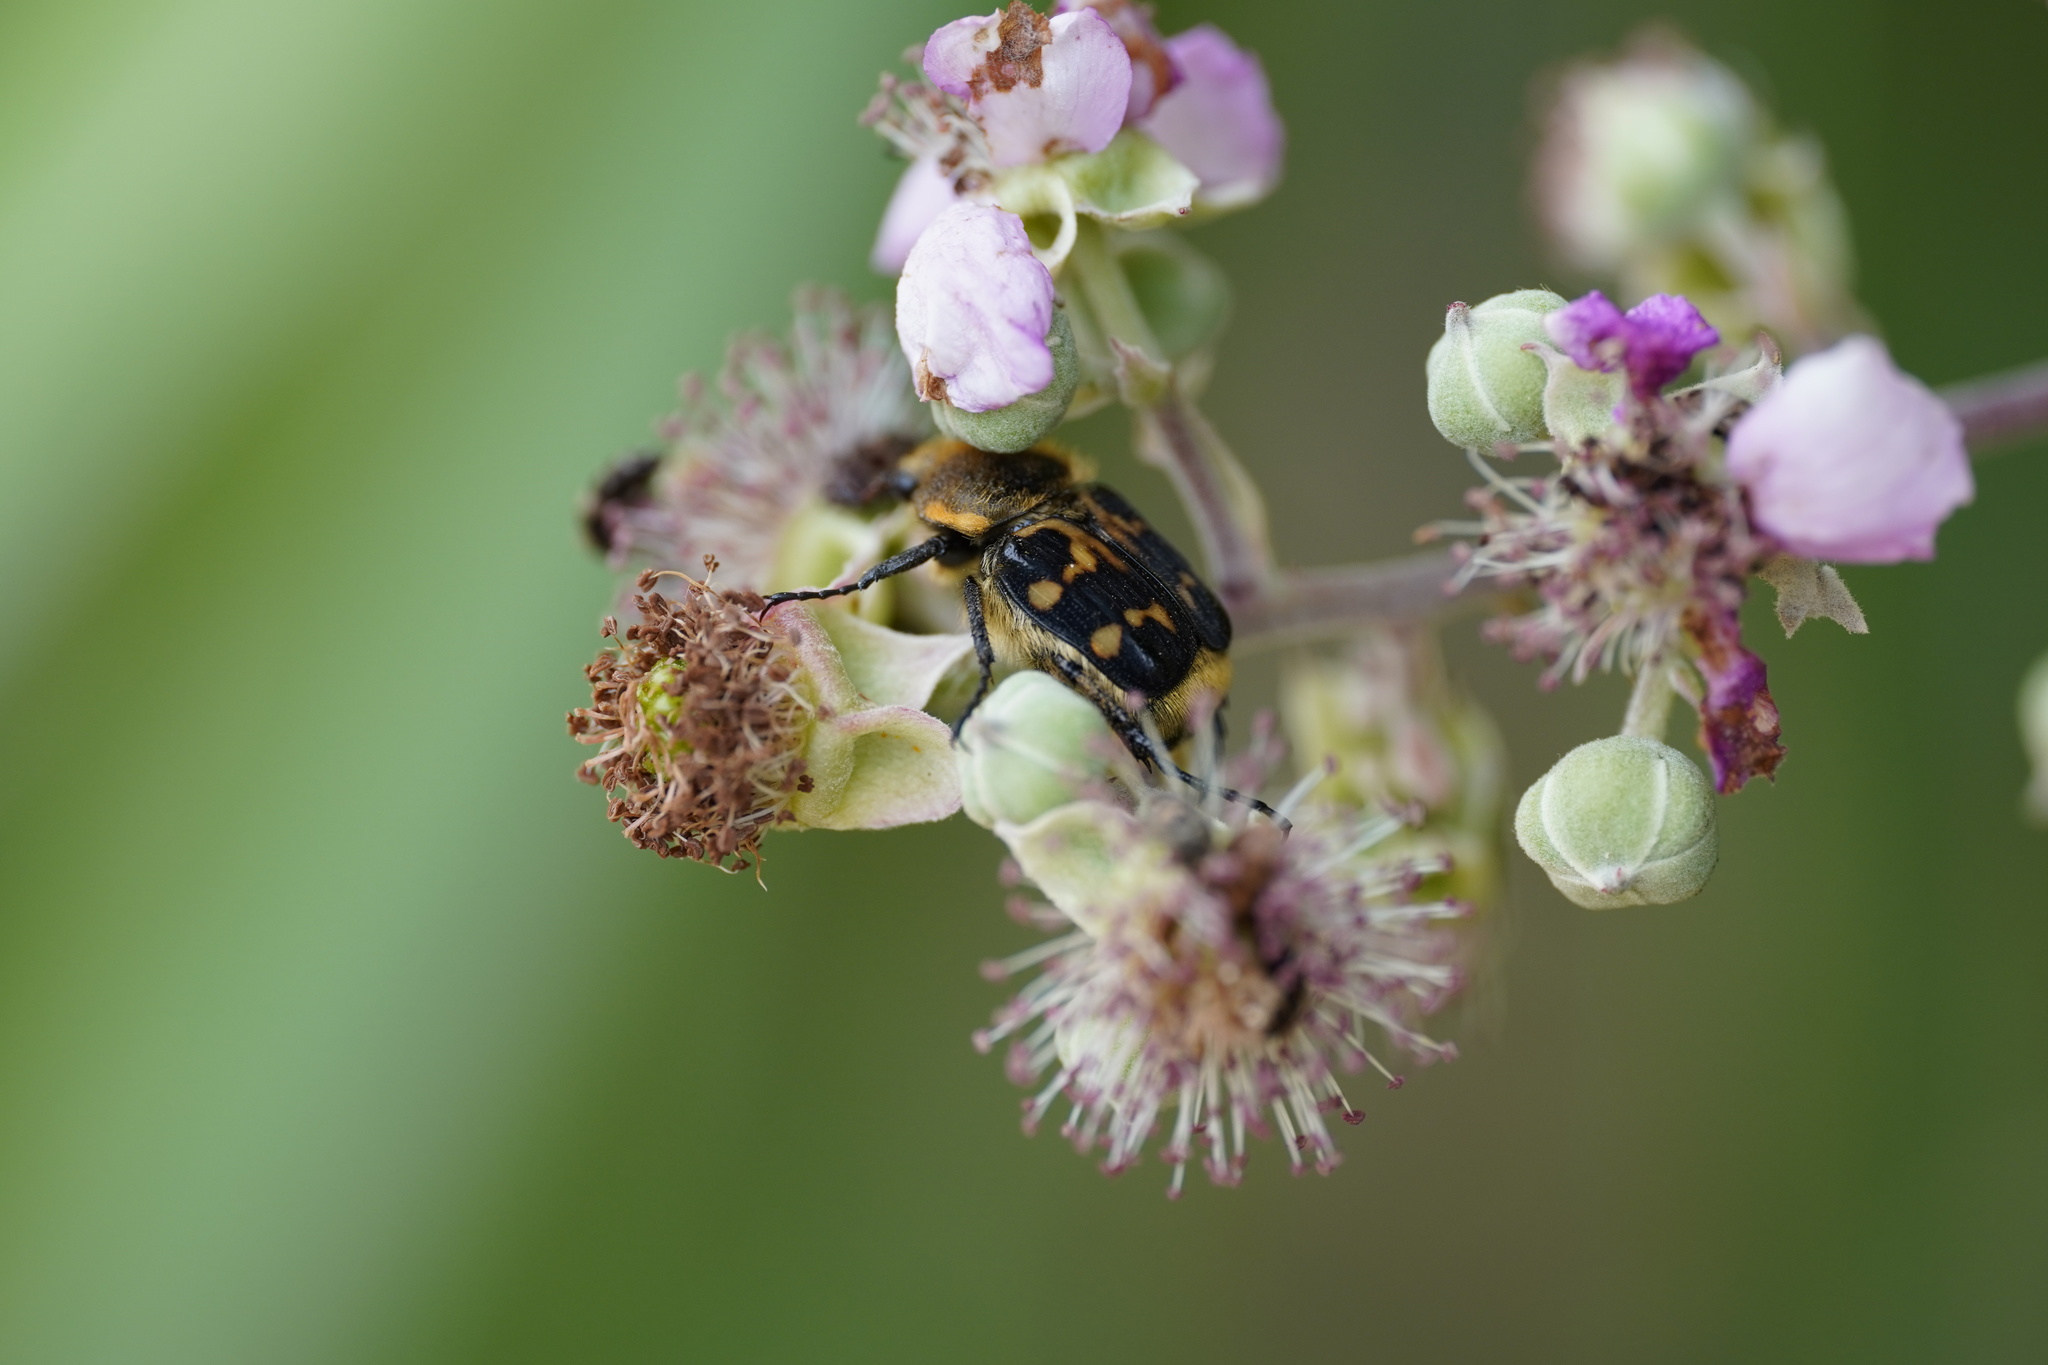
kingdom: Animalia
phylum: Arthropoda
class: Insecta
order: Coleoptera
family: Scarabaeidae
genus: Trichius
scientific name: Trichius gallicus
